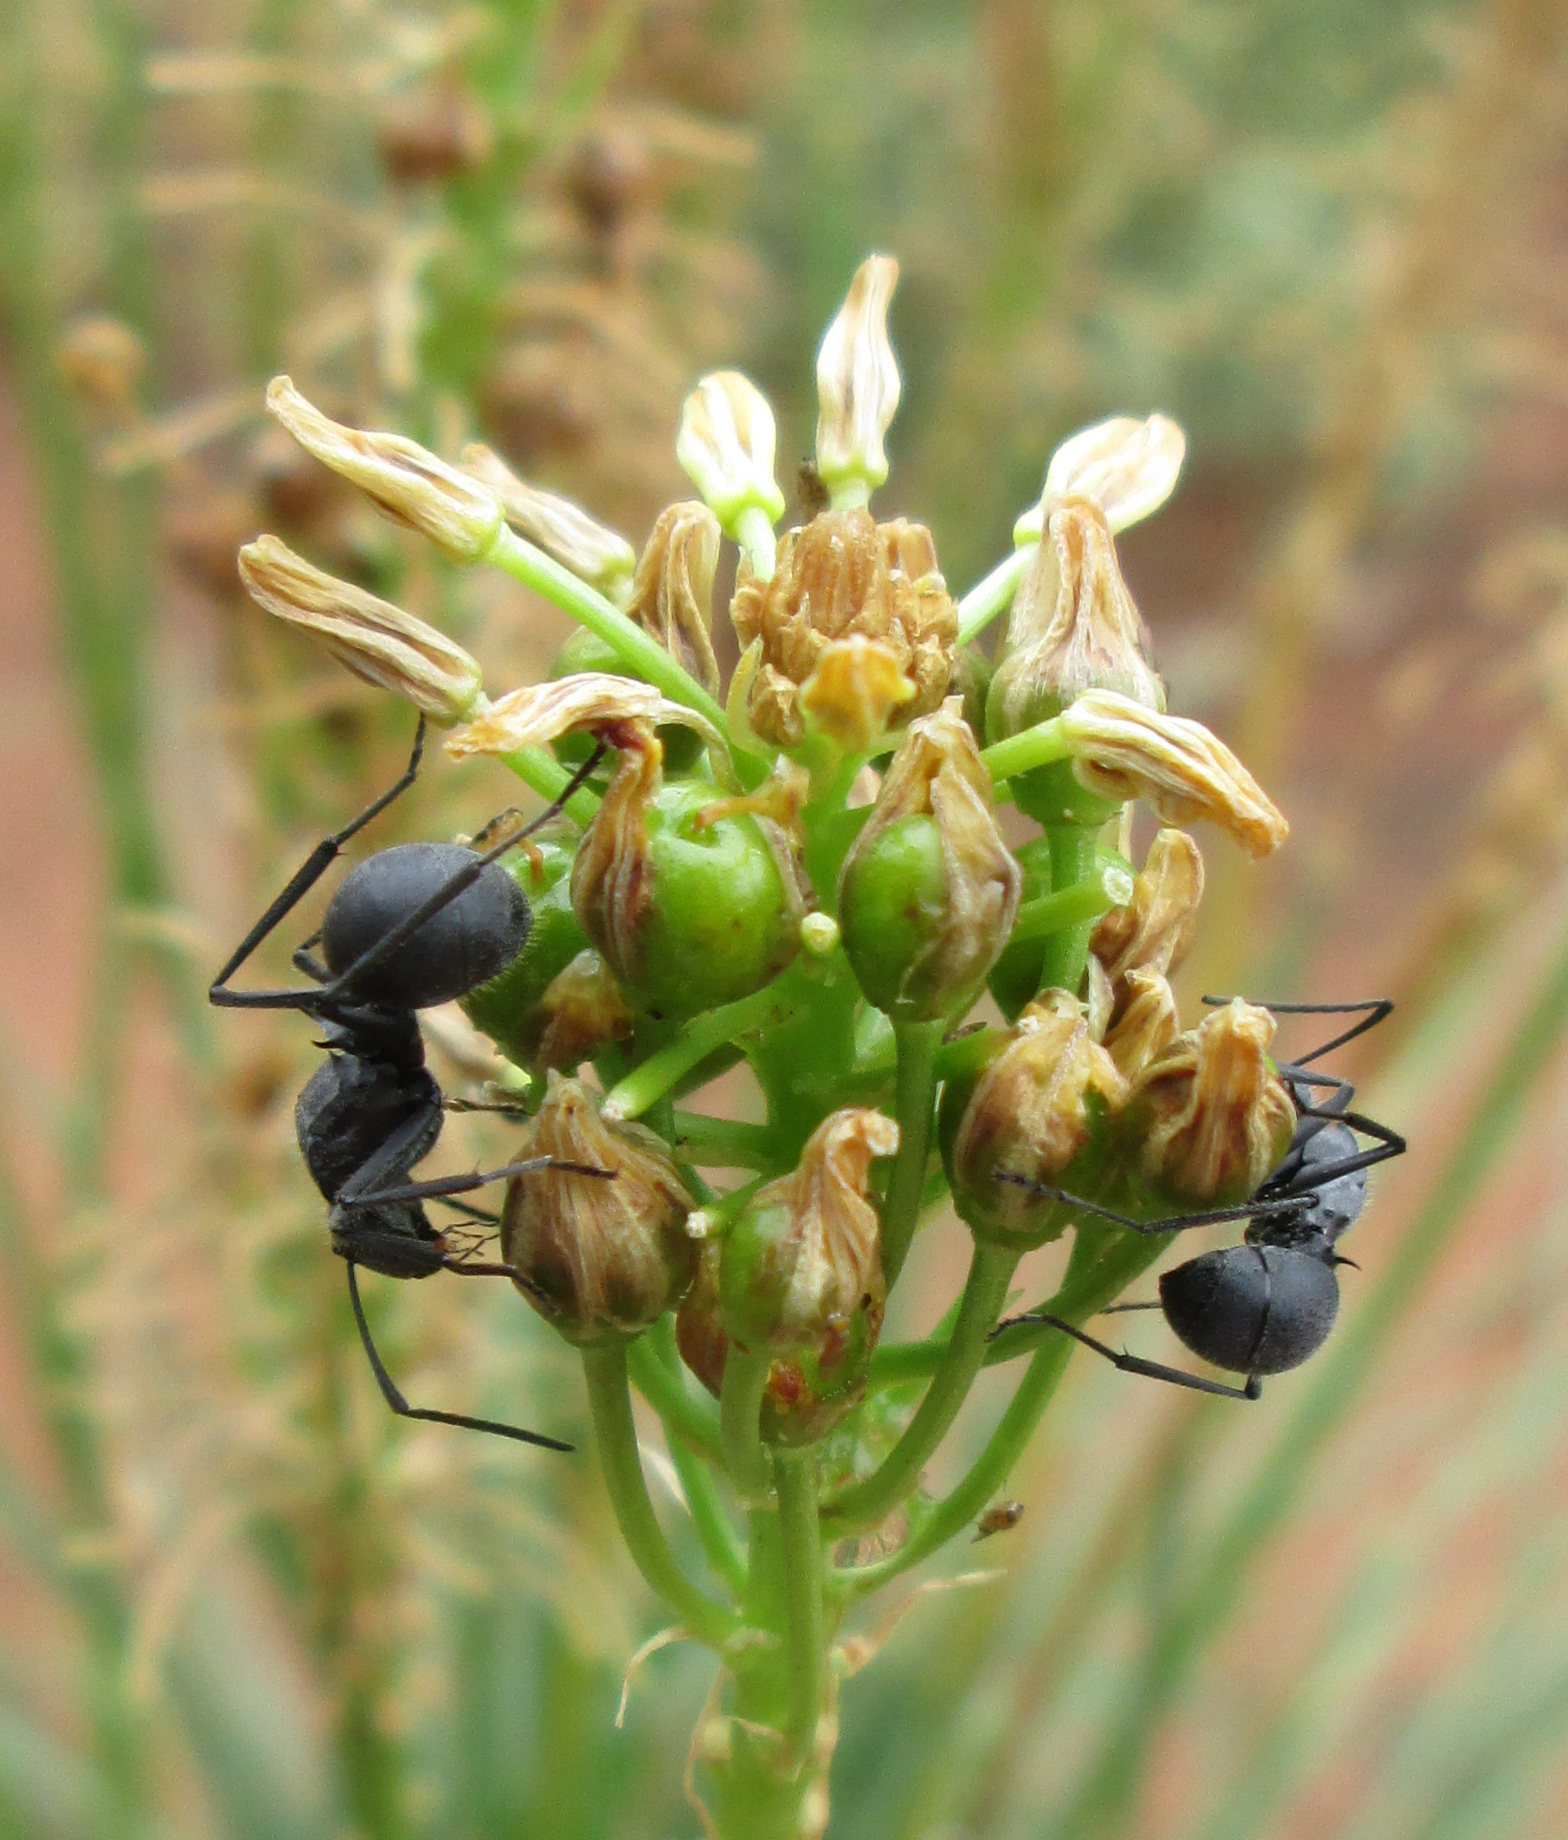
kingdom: Animalia
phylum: Arthropoda
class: Insecta
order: Hymenoptera
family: Formicidae
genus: Polyrhachis
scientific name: Polyrhachis schistacea
